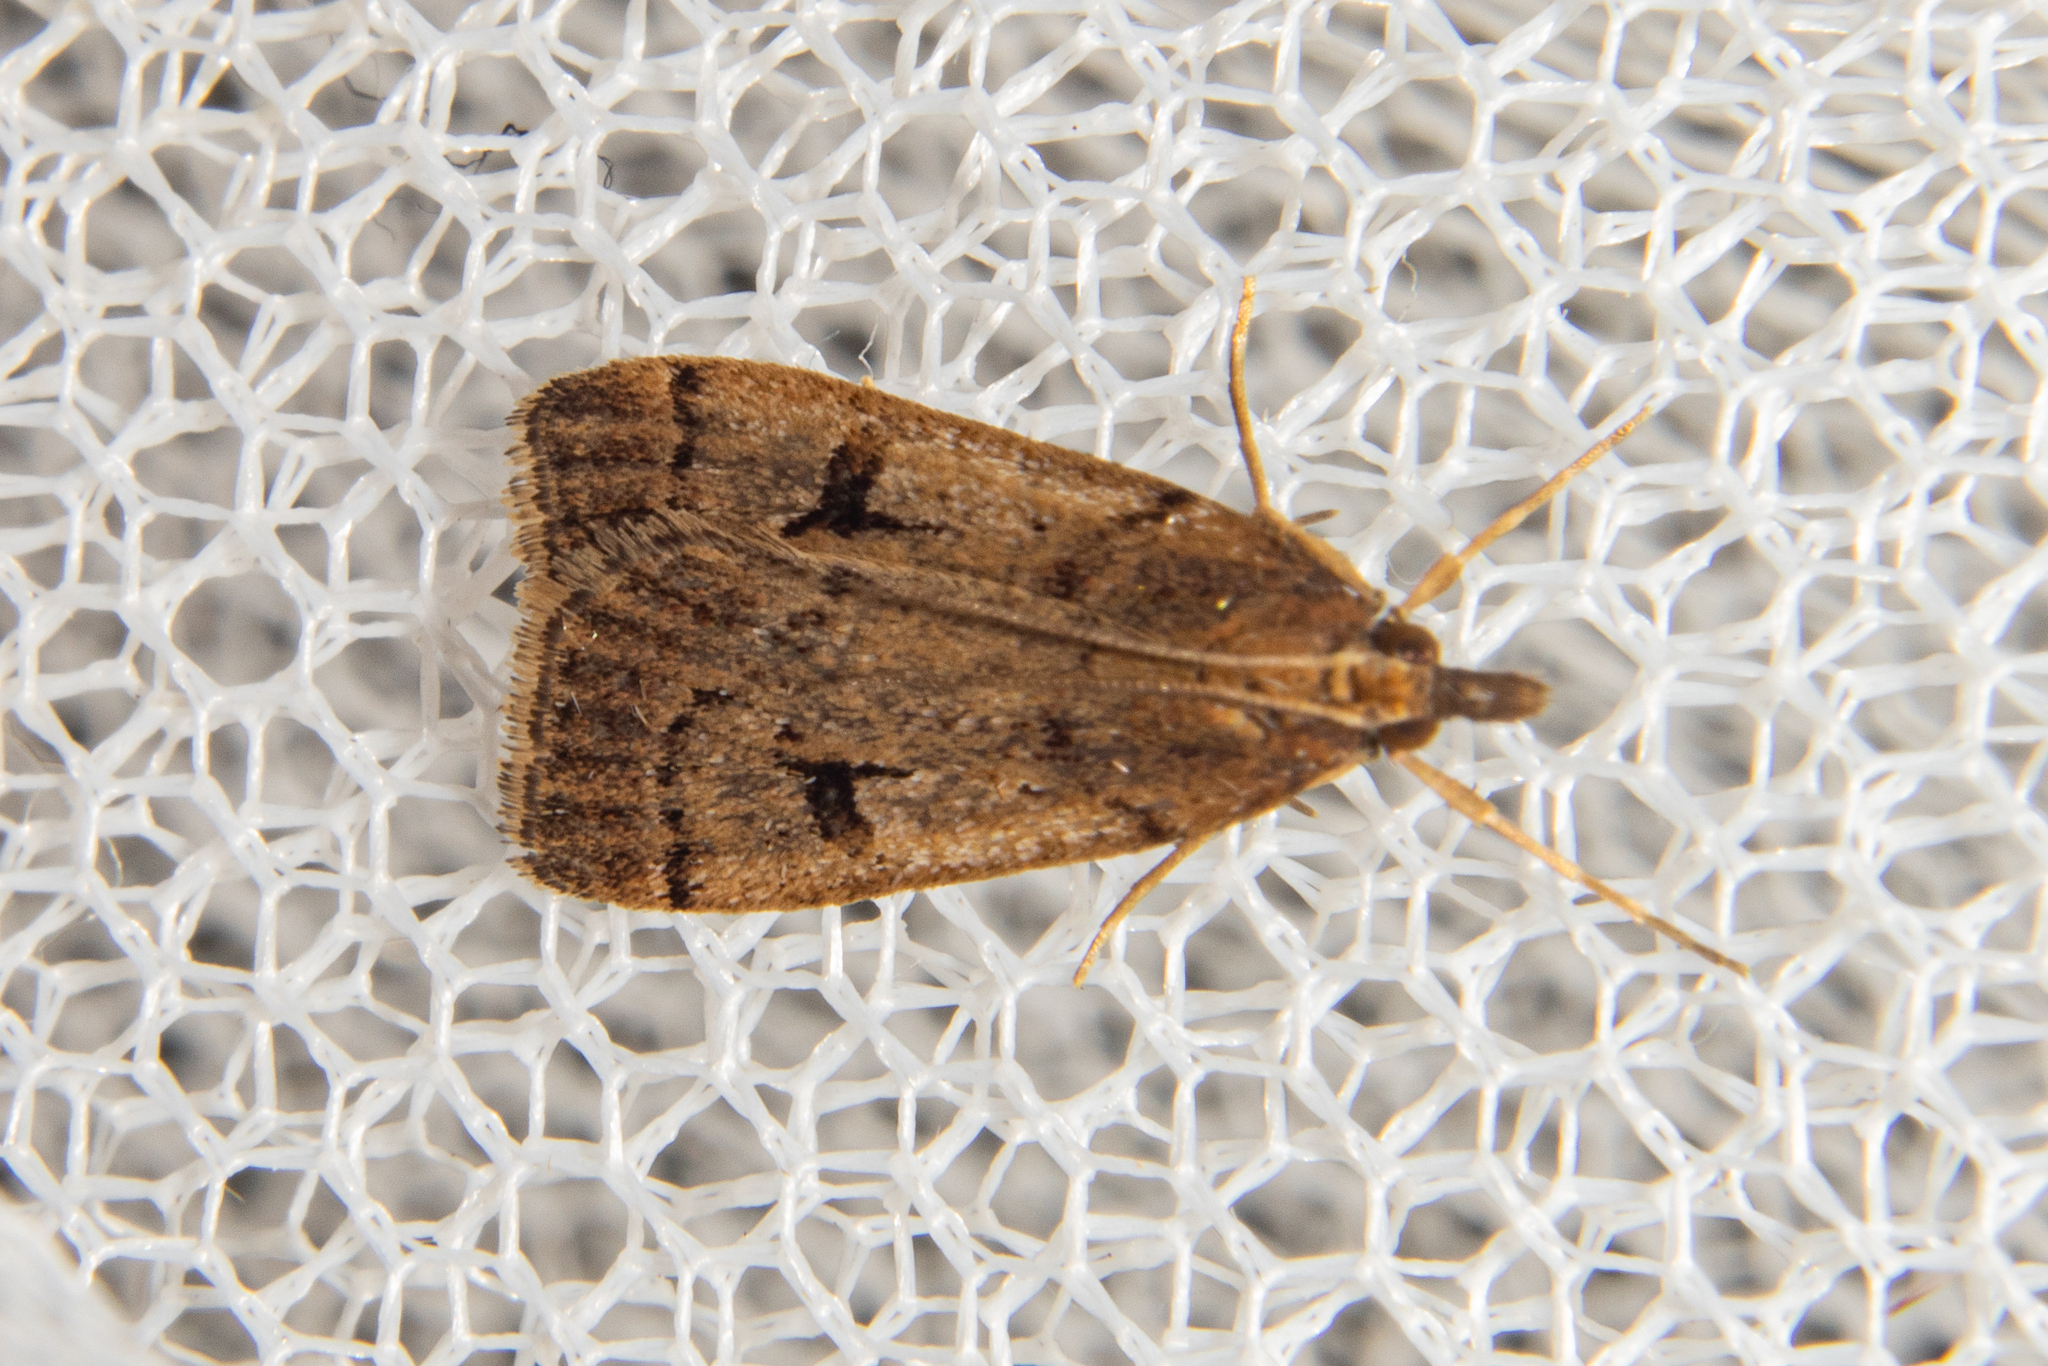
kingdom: Animalia
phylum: Arthropoda
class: Insecta
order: Lepidoptera
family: Crambidae
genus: Scoparia
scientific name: Scoparia fumata
